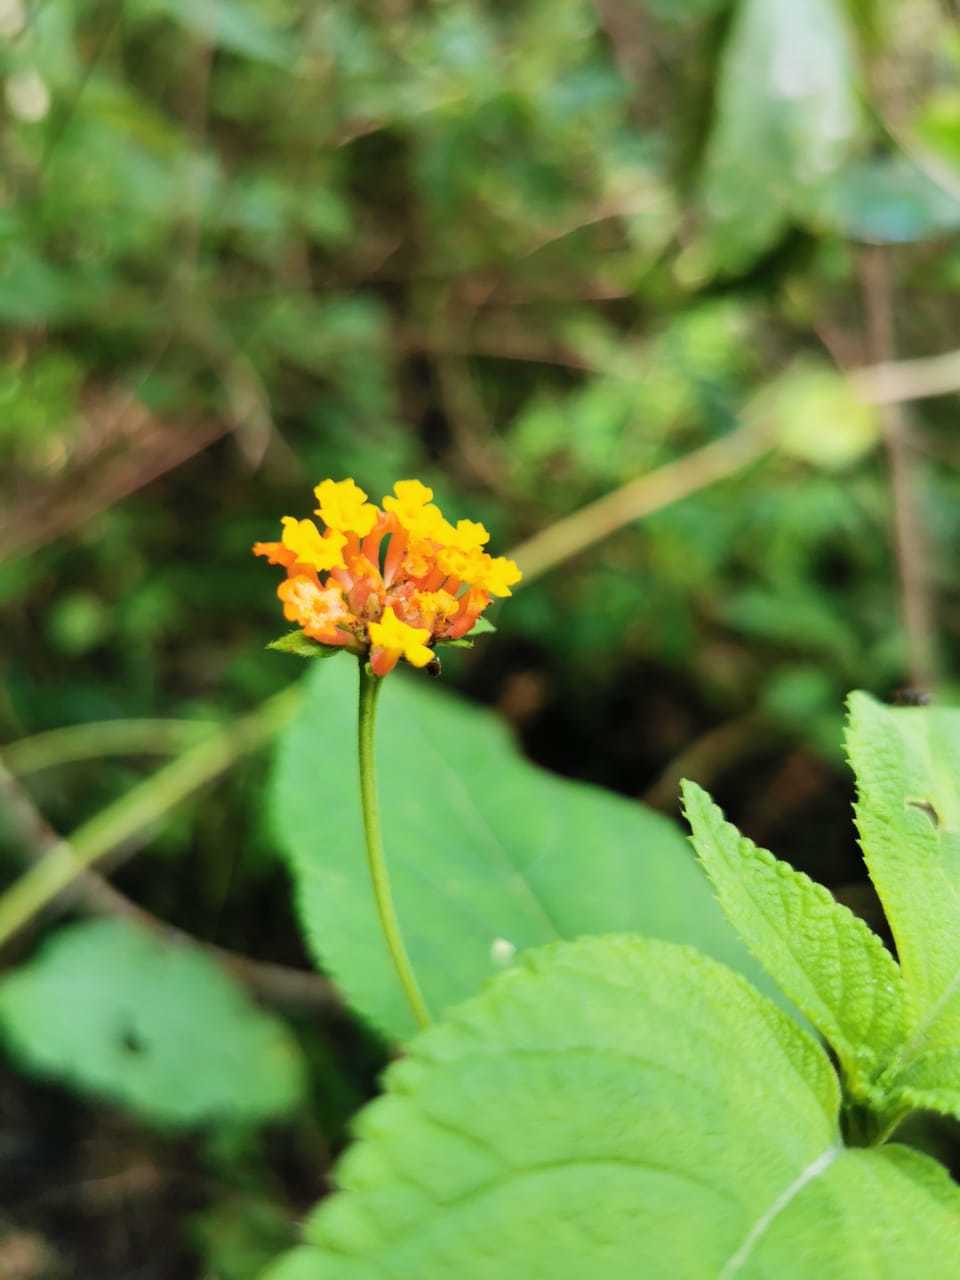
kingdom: Plantae
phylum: Tracheophyta
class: Magnoliopsida
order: Lamiales
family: Verbenaceae
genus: Lantana
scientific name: Lantana camara
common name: Lantana
